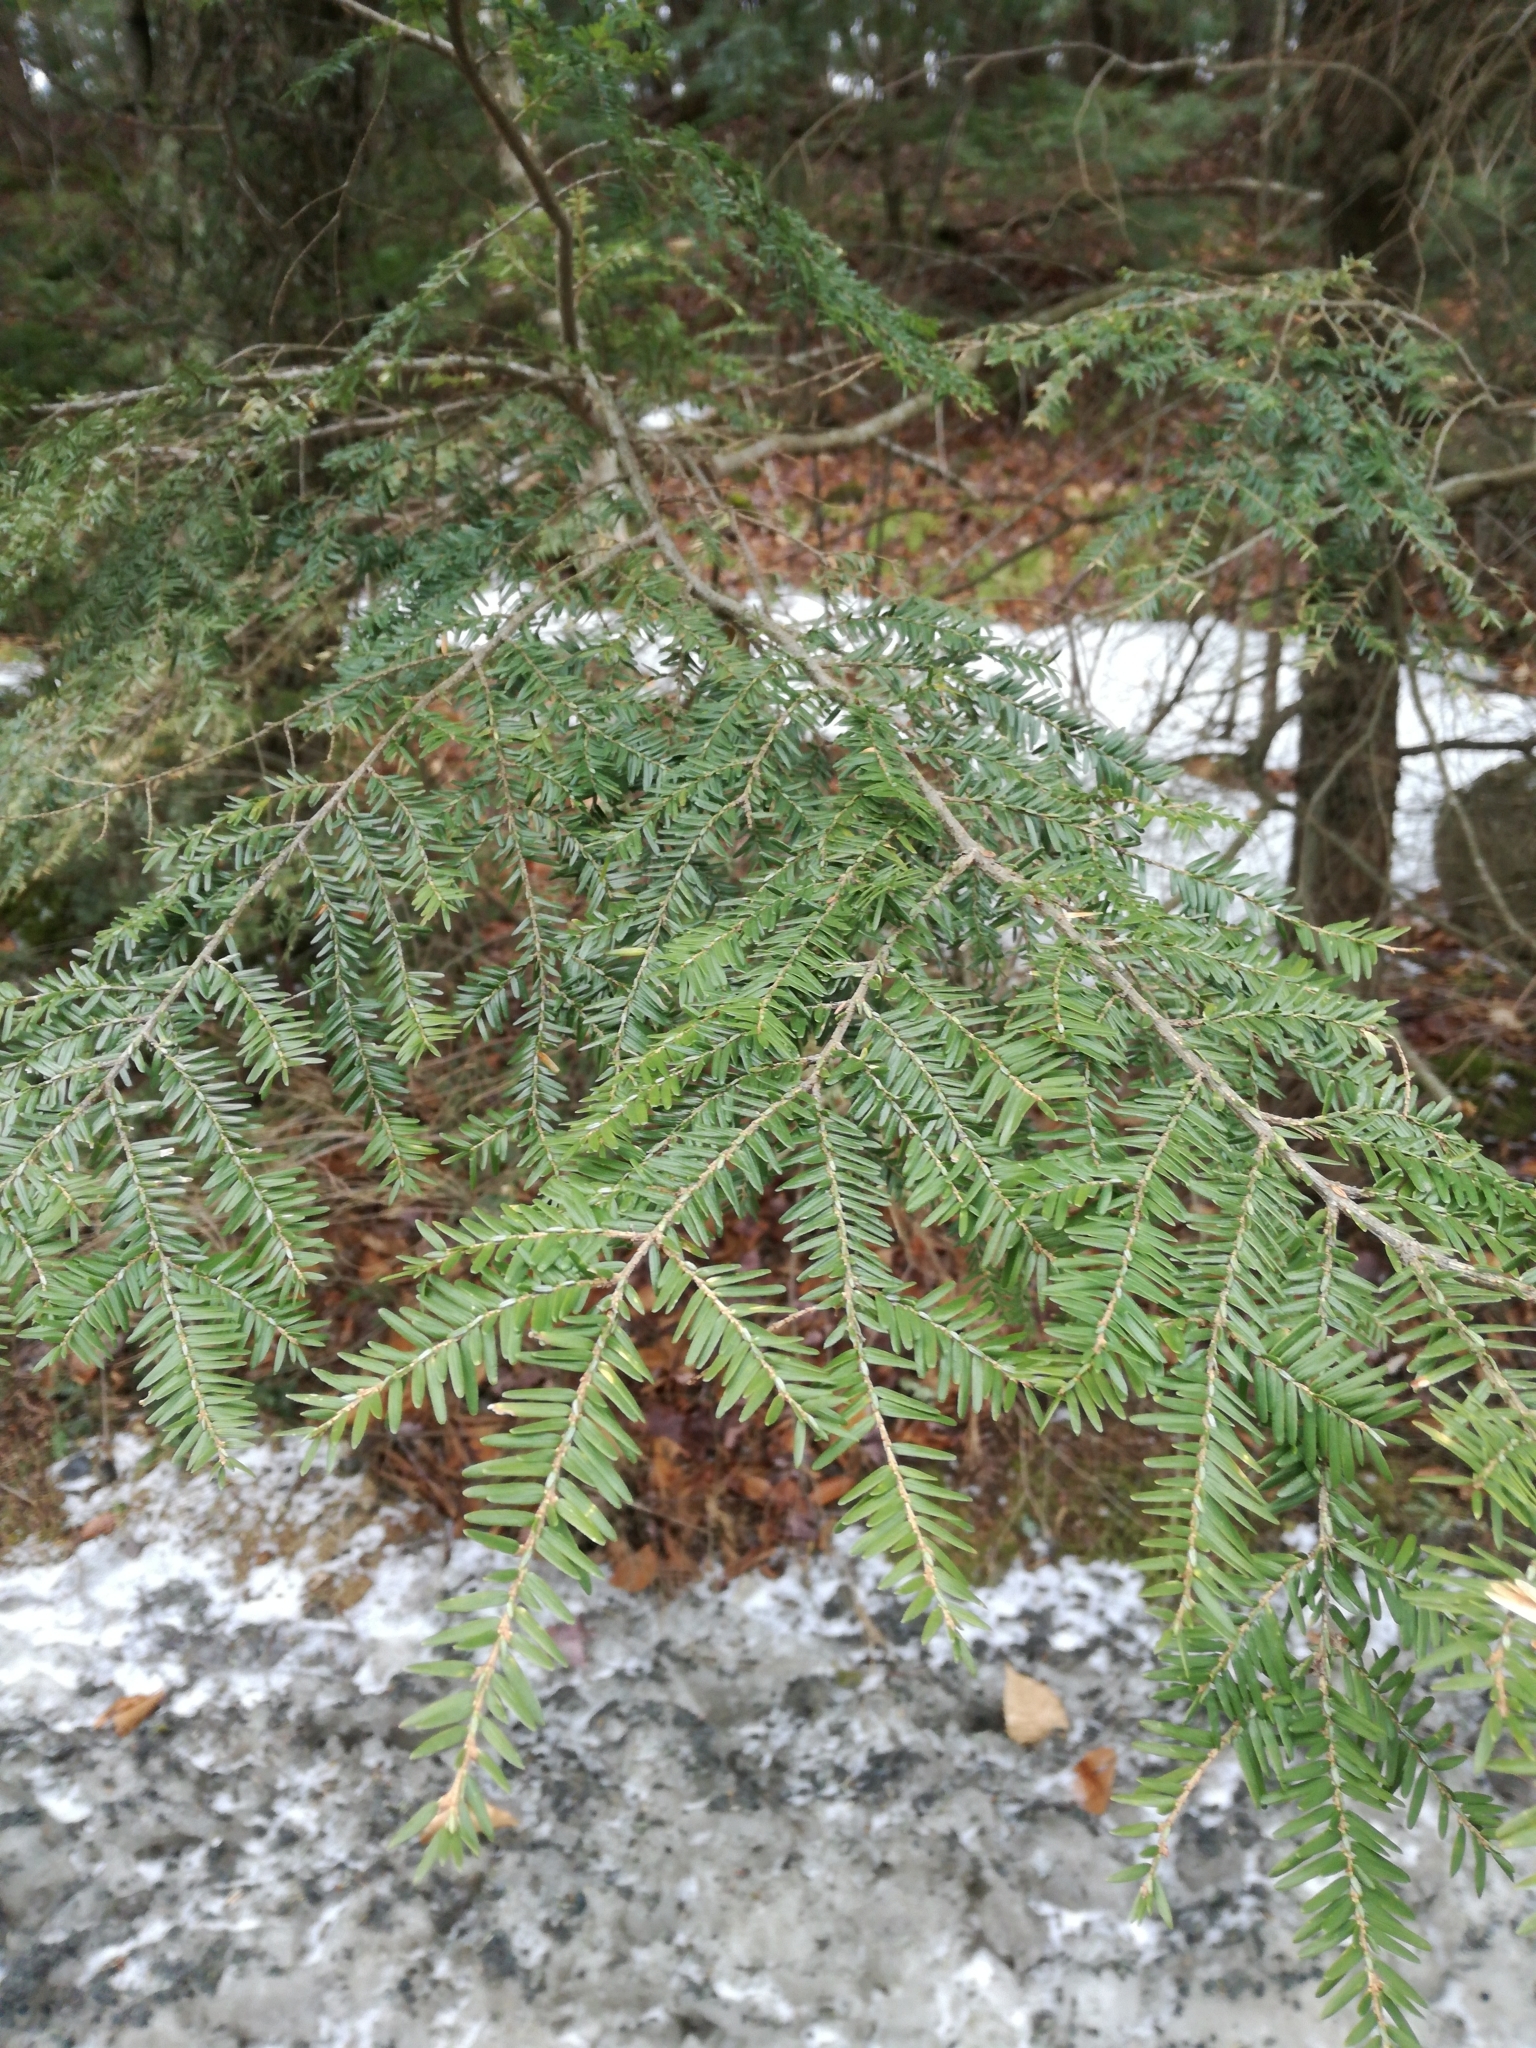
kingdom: Plantae
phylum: Tracheophyta
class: Pinopsida
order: Pinales
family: Pinaceae
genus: Tsuga
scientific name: Tsuga canadensis
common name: Eastern hemlock
